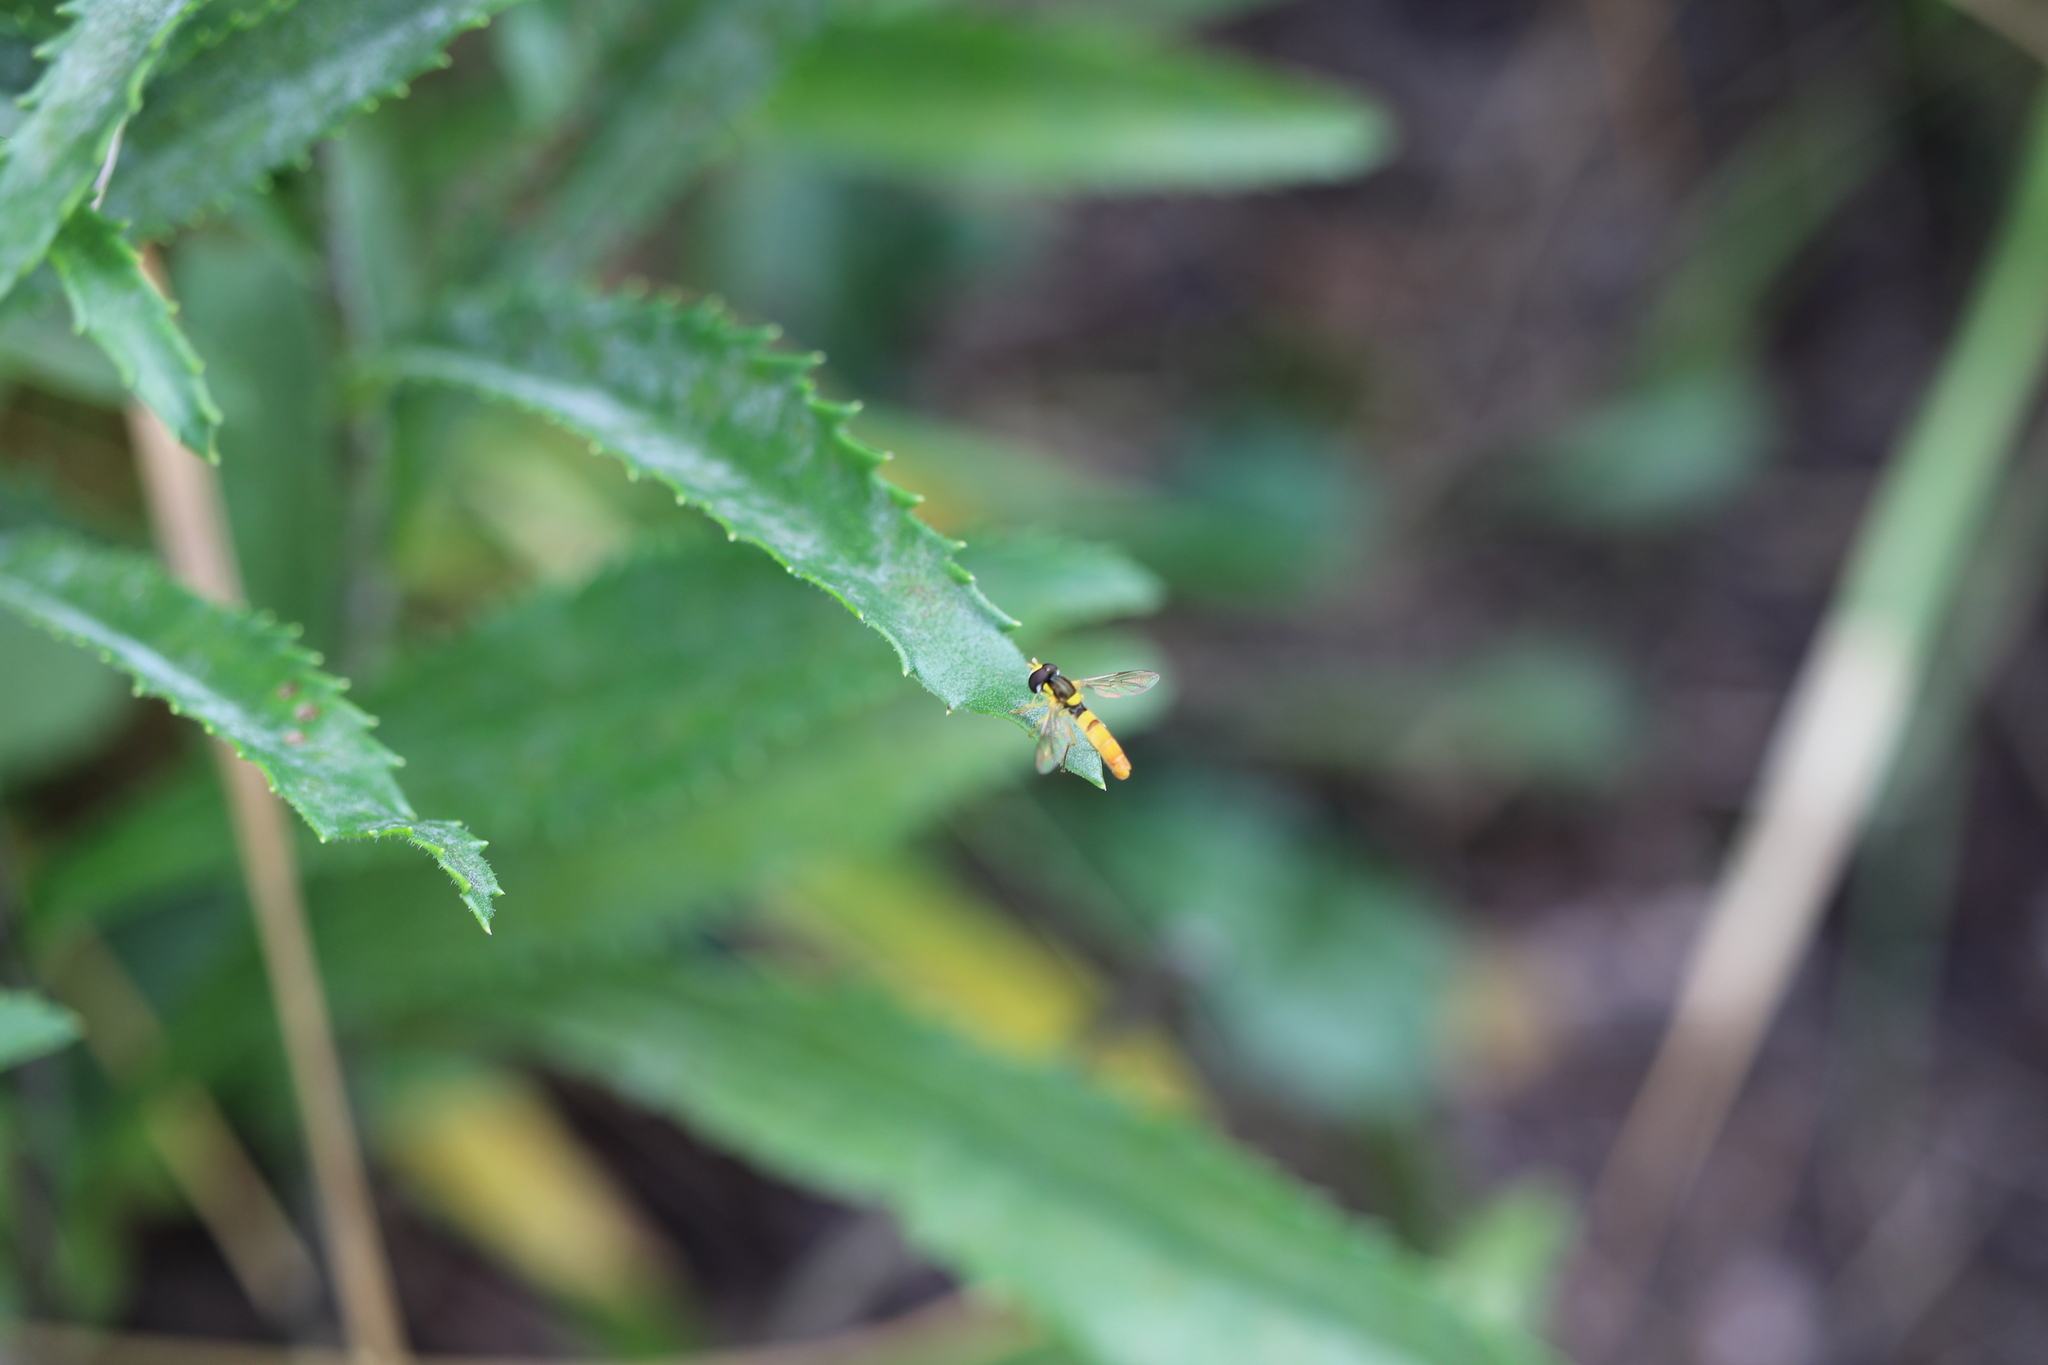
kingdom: Animalia
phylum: Arthropoda
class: Insecta
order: Diptera
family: Syrphidae
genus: Sphaerophoria
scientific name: Sphaerophoria contigua
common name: Tufted globetail
